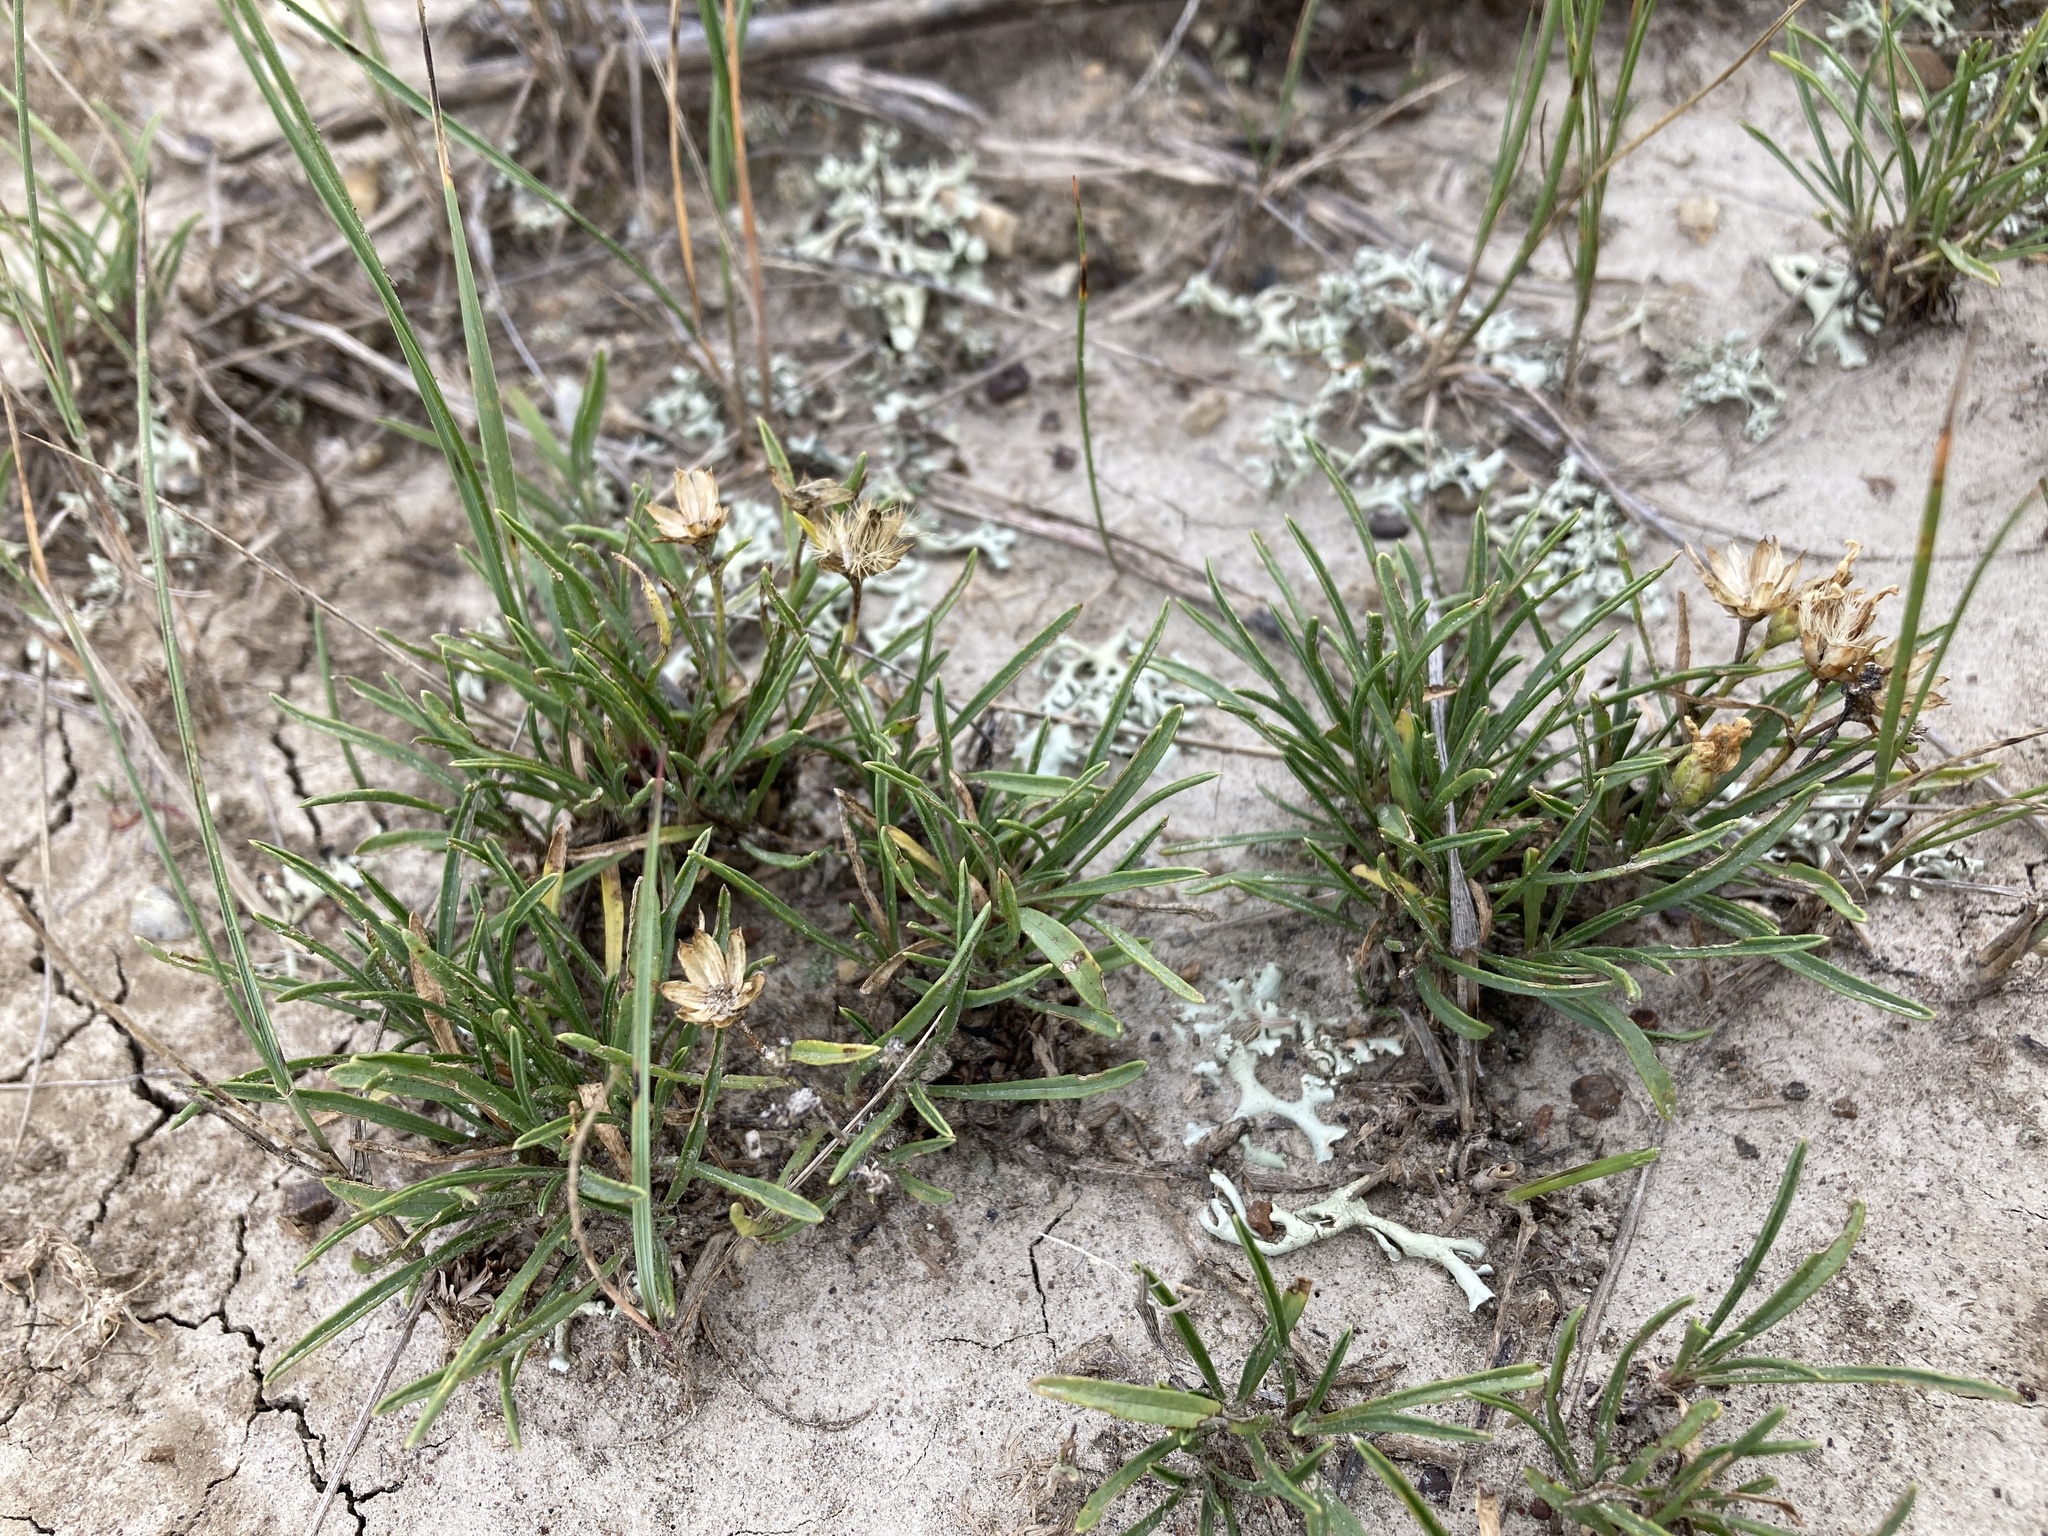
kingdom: Plantae
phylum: Tracheophyta
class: Magnoliopsida
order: Asterales
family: Asteraceae
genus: Oonopsis
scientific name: Oonopsis multicaulis
